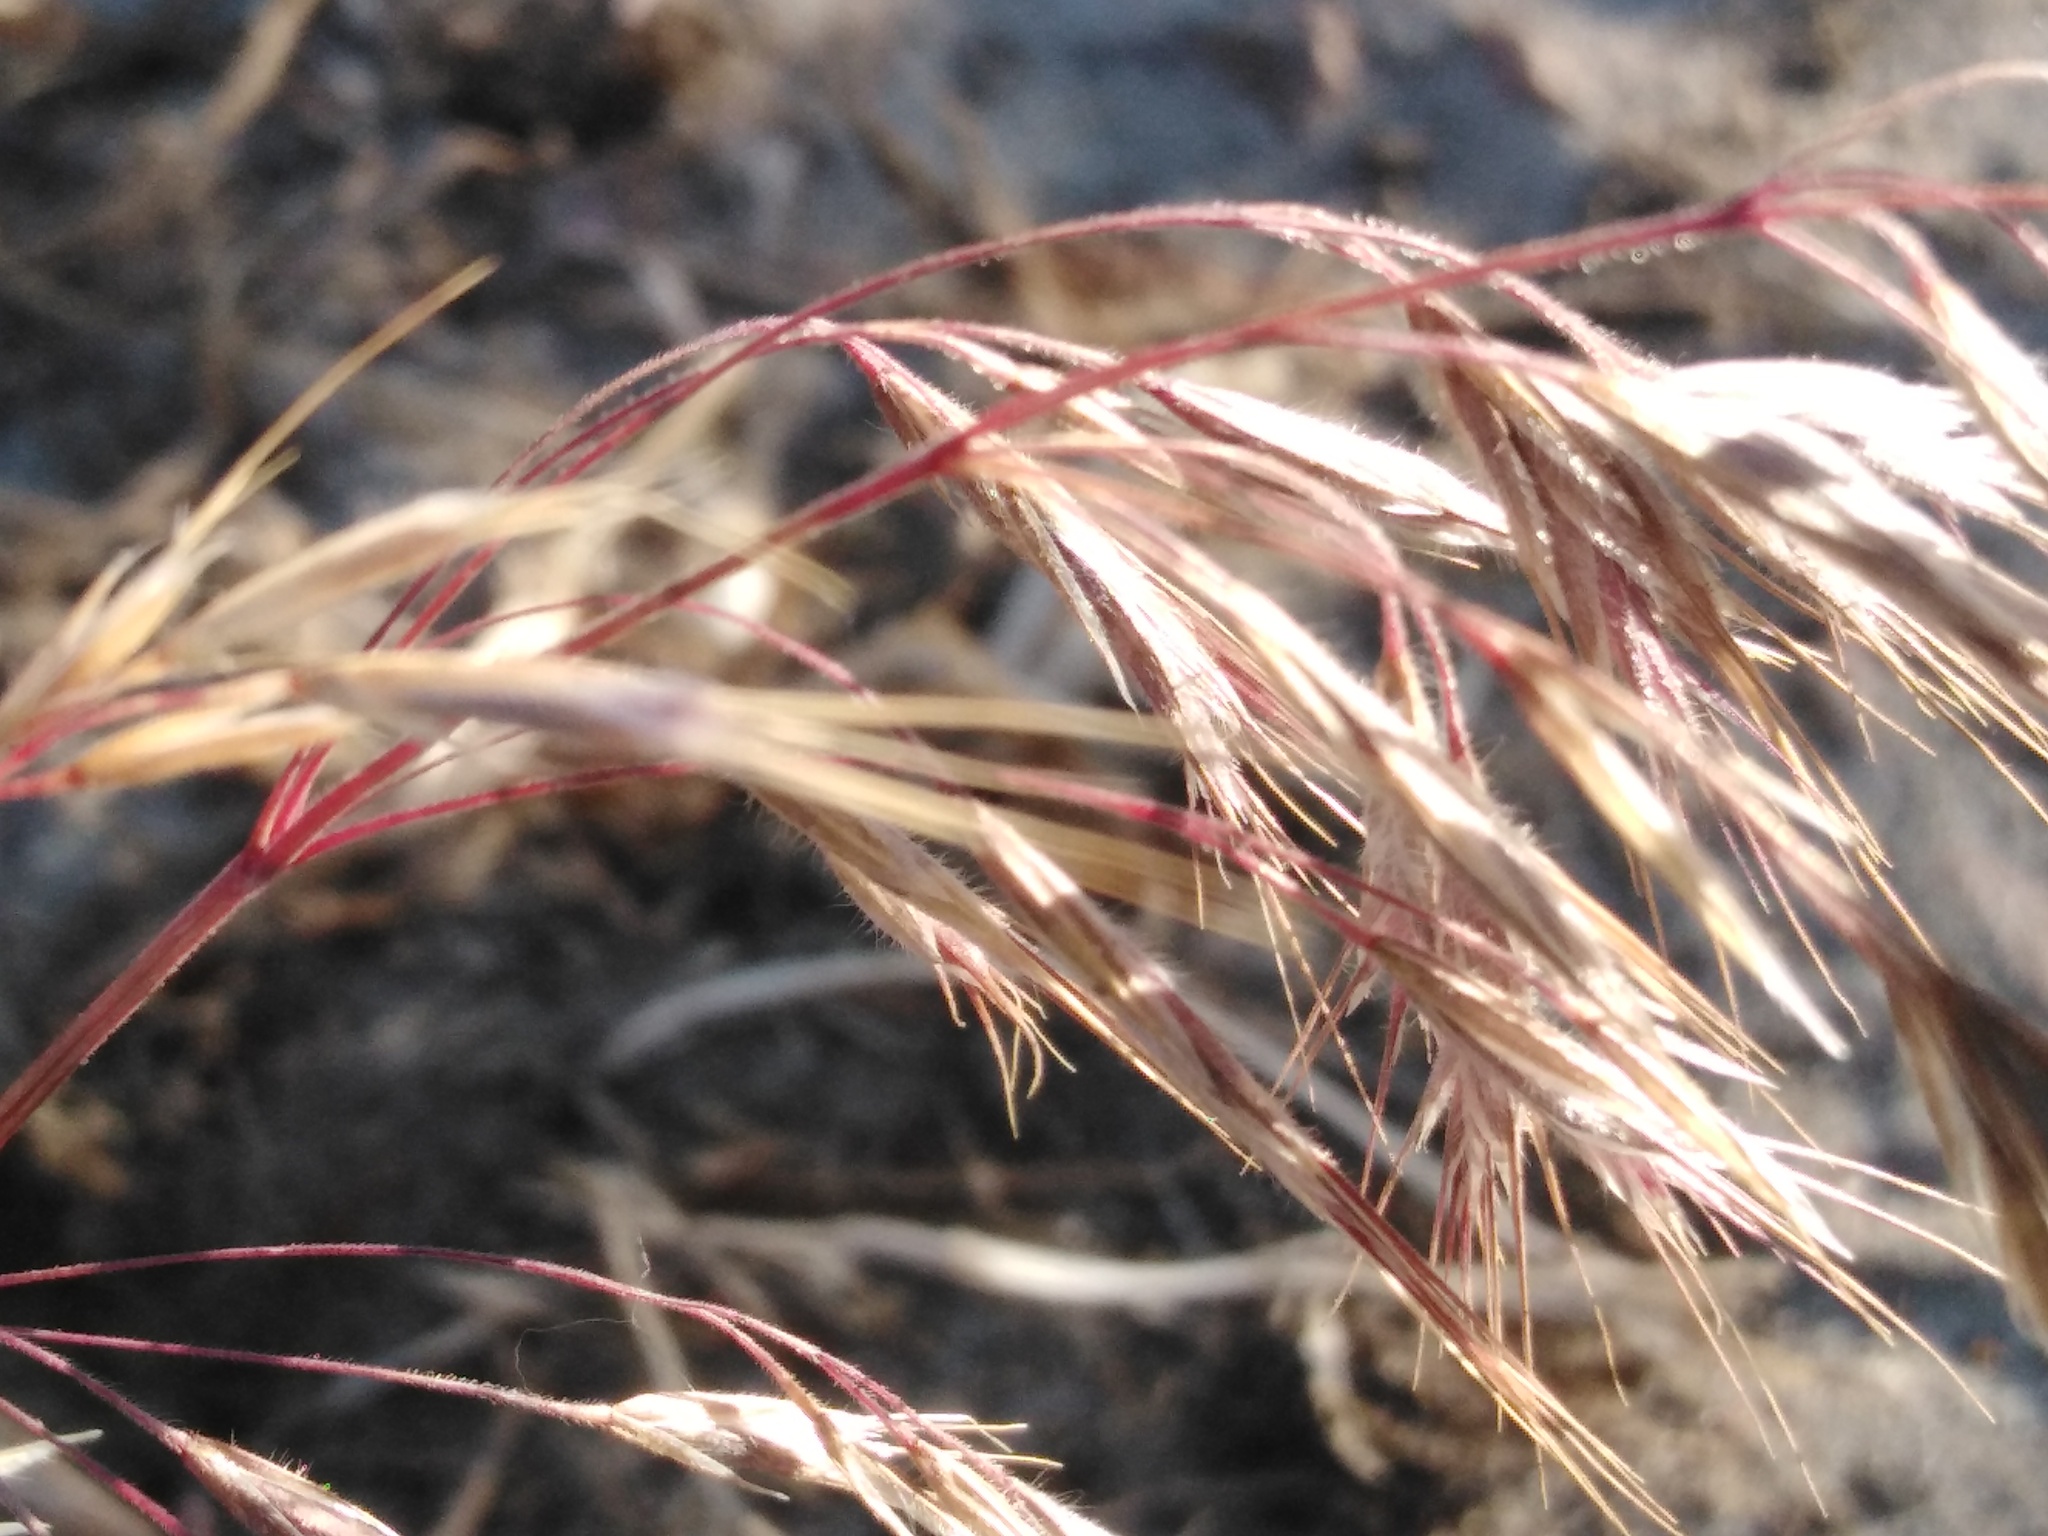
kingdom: Plantae
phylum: Tracheophyta
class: Liliopsida
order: Poales
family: Poaceae
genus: Bromus
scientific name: Bromus tectorum
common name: Cheatgrass
